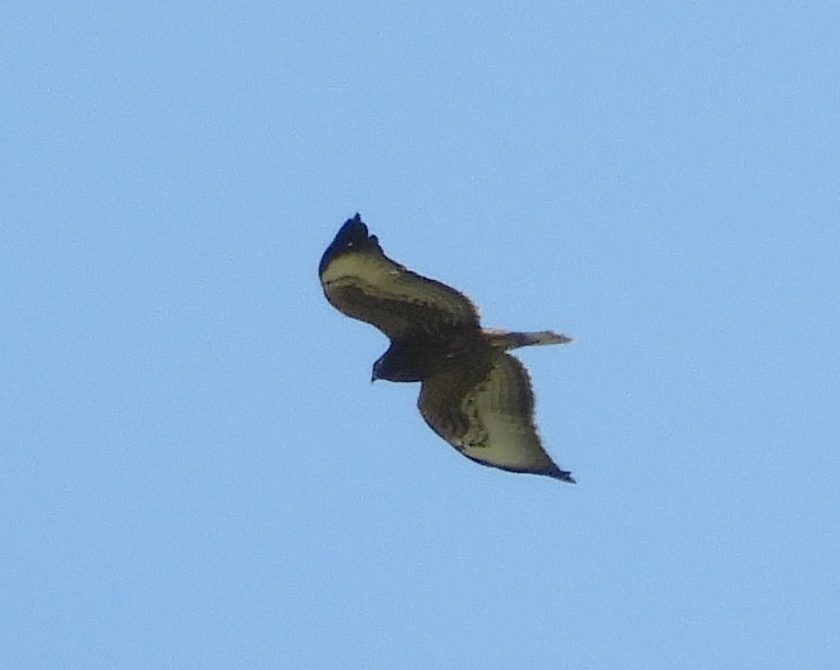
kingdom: Animalia
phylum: Chordata
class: Aves
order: Accipitriformes
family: Accipitridae
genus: Buteo
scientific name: Buteo jamaicensis
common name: Red-tailed hawk
